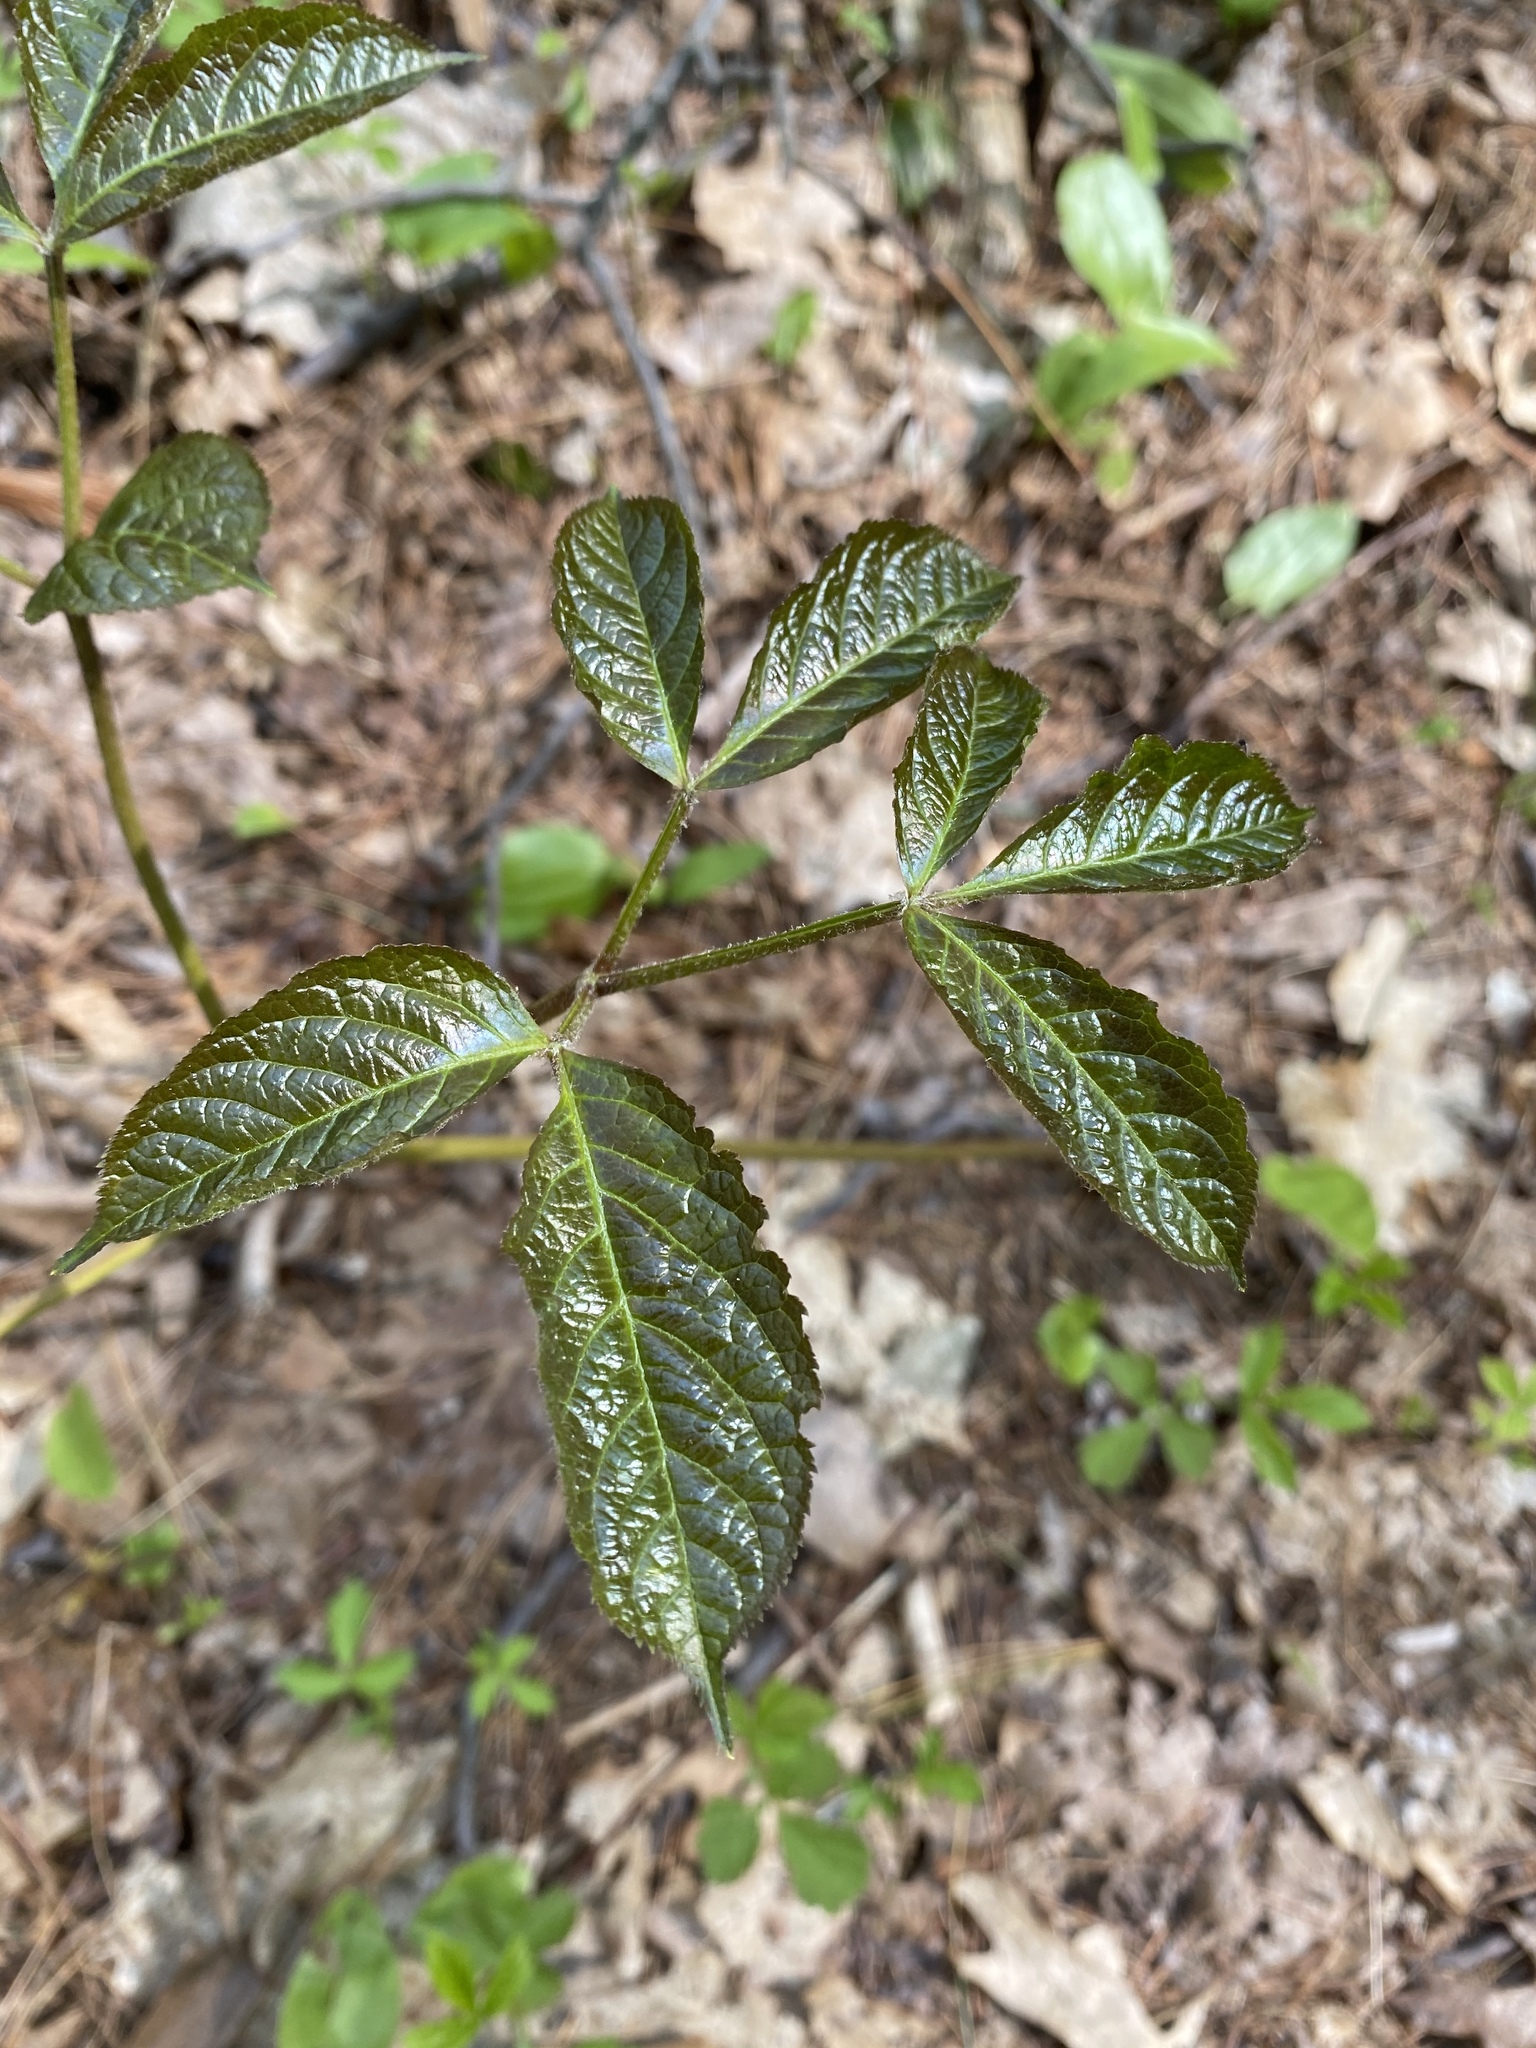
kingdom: Plantae
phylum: Tracheophyta
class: Magnoliopsida
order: Apiales
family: Araliaceae
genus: Aralia
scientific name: Aralia nudicaulis
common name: Wild sarsaparilla
